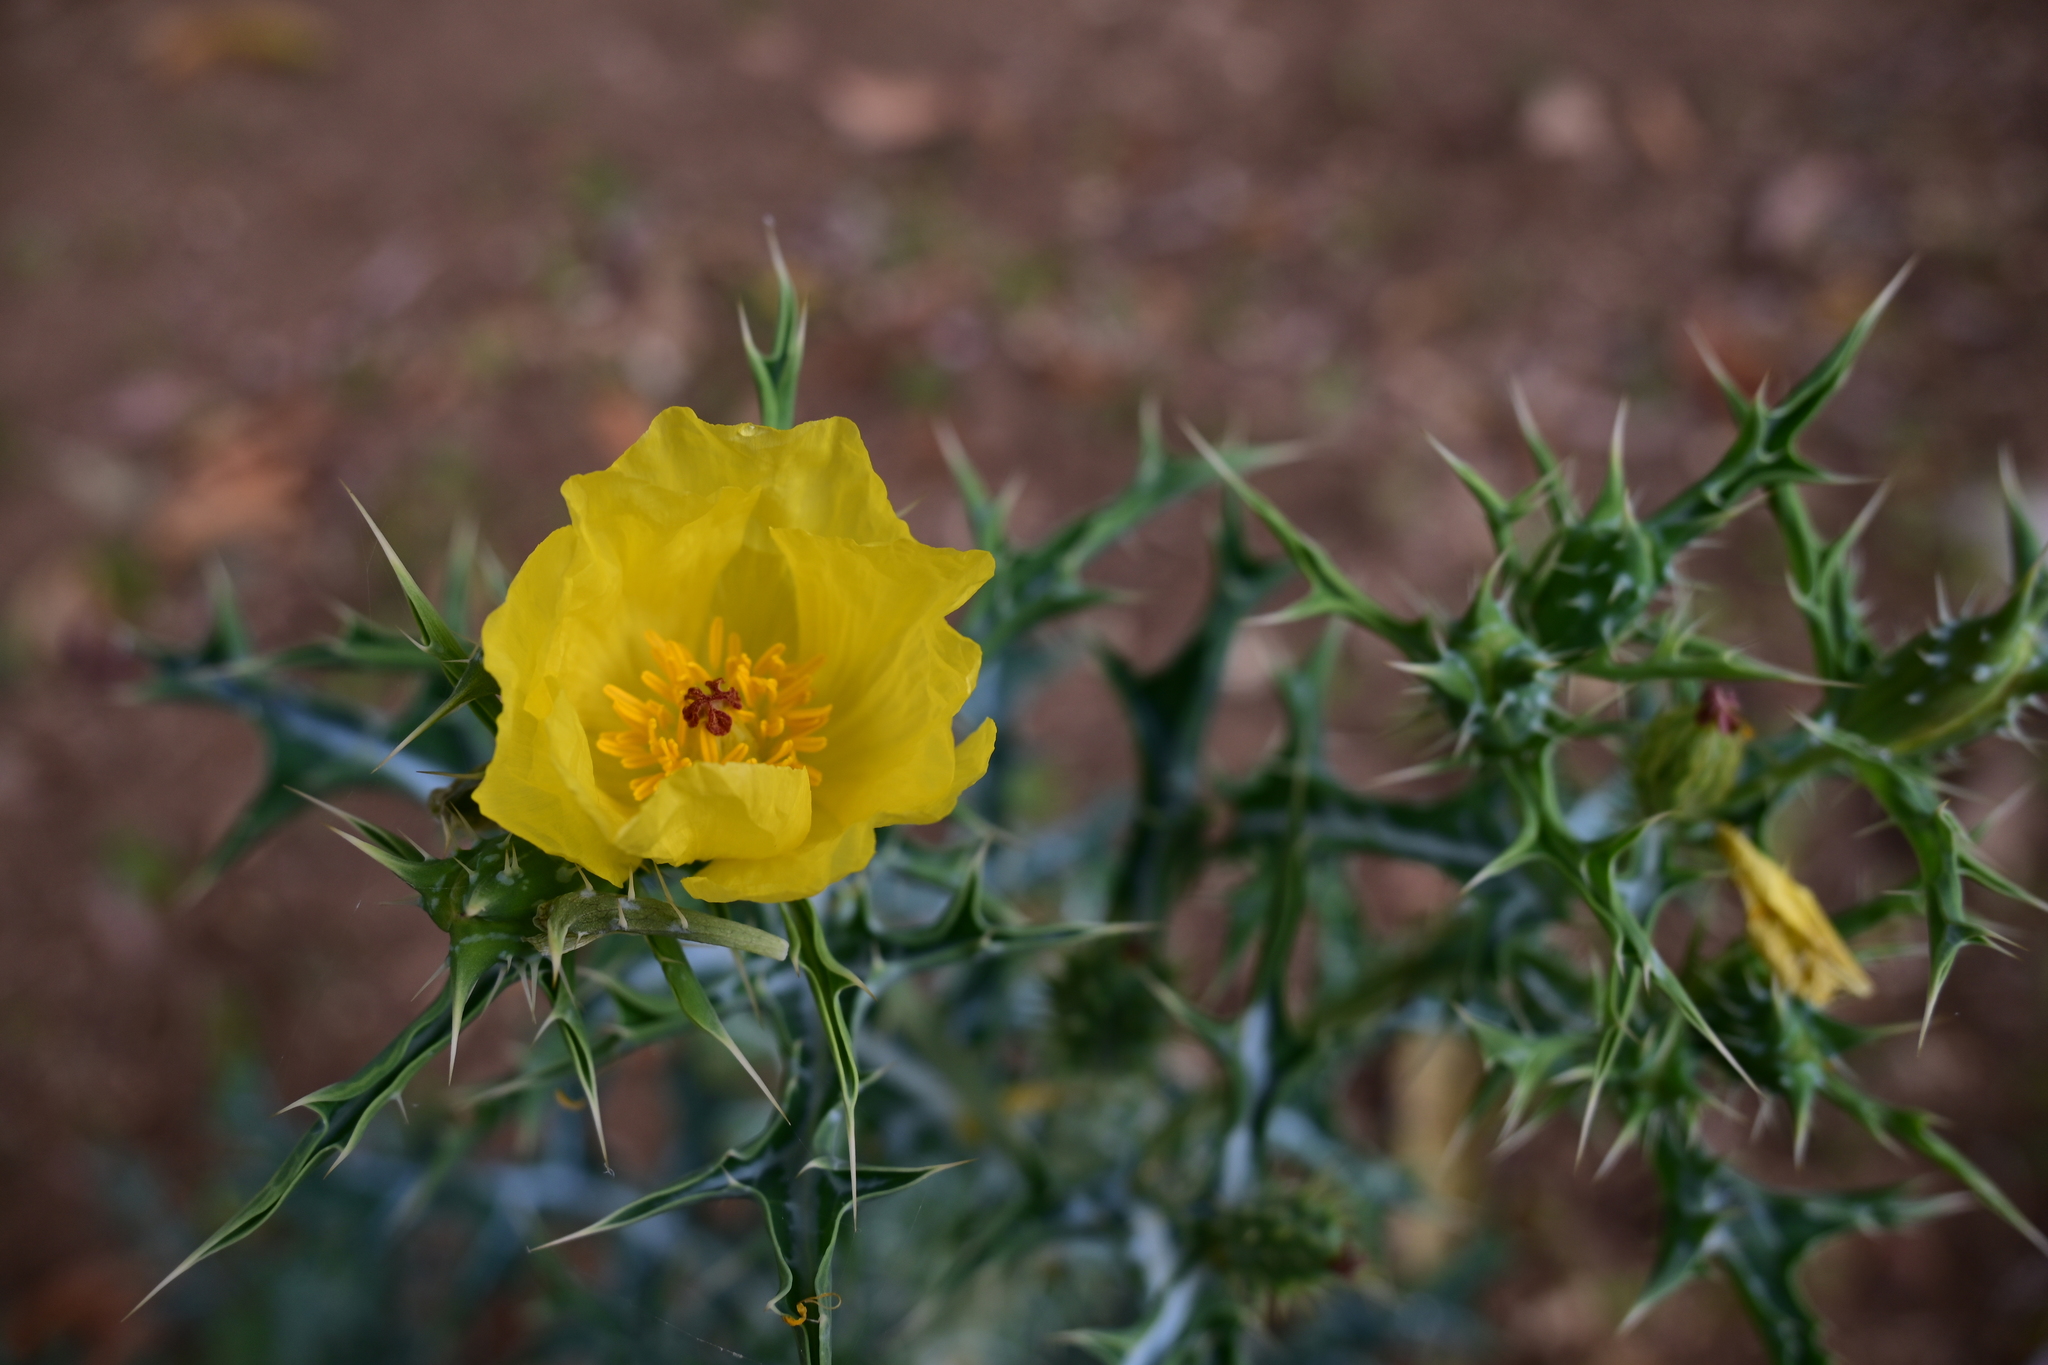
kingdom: Plantae
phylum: Tracheophyta
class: Magnoliopsida
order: Ranunculales
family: Papaveraceae
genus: Argemone
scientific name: Argemone mexicana
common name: Mexican poppy
